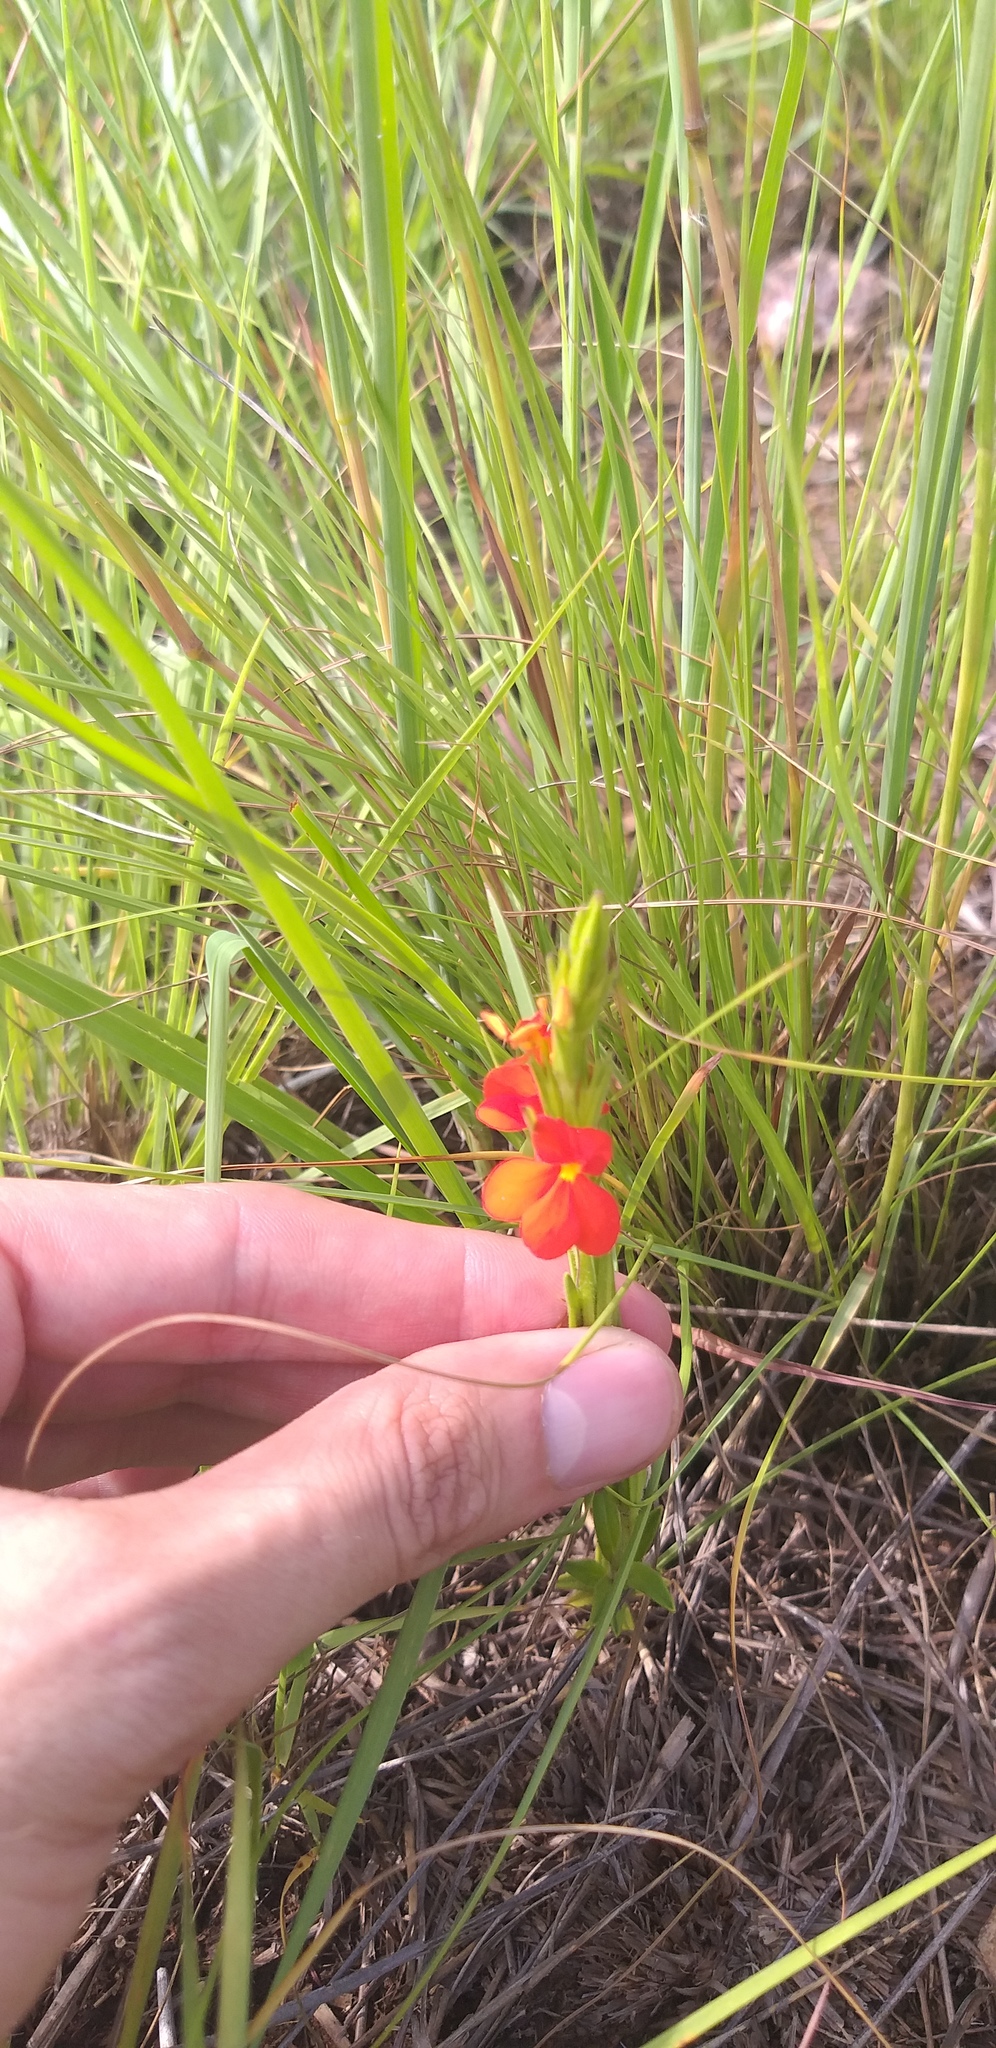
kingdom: Plantae
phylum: Tracheophyta
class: Magnoliopsida
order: Lamiales
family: Orobanchaceae
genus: Striga
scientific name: Striga asiatica
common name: Asiatic witchweed
